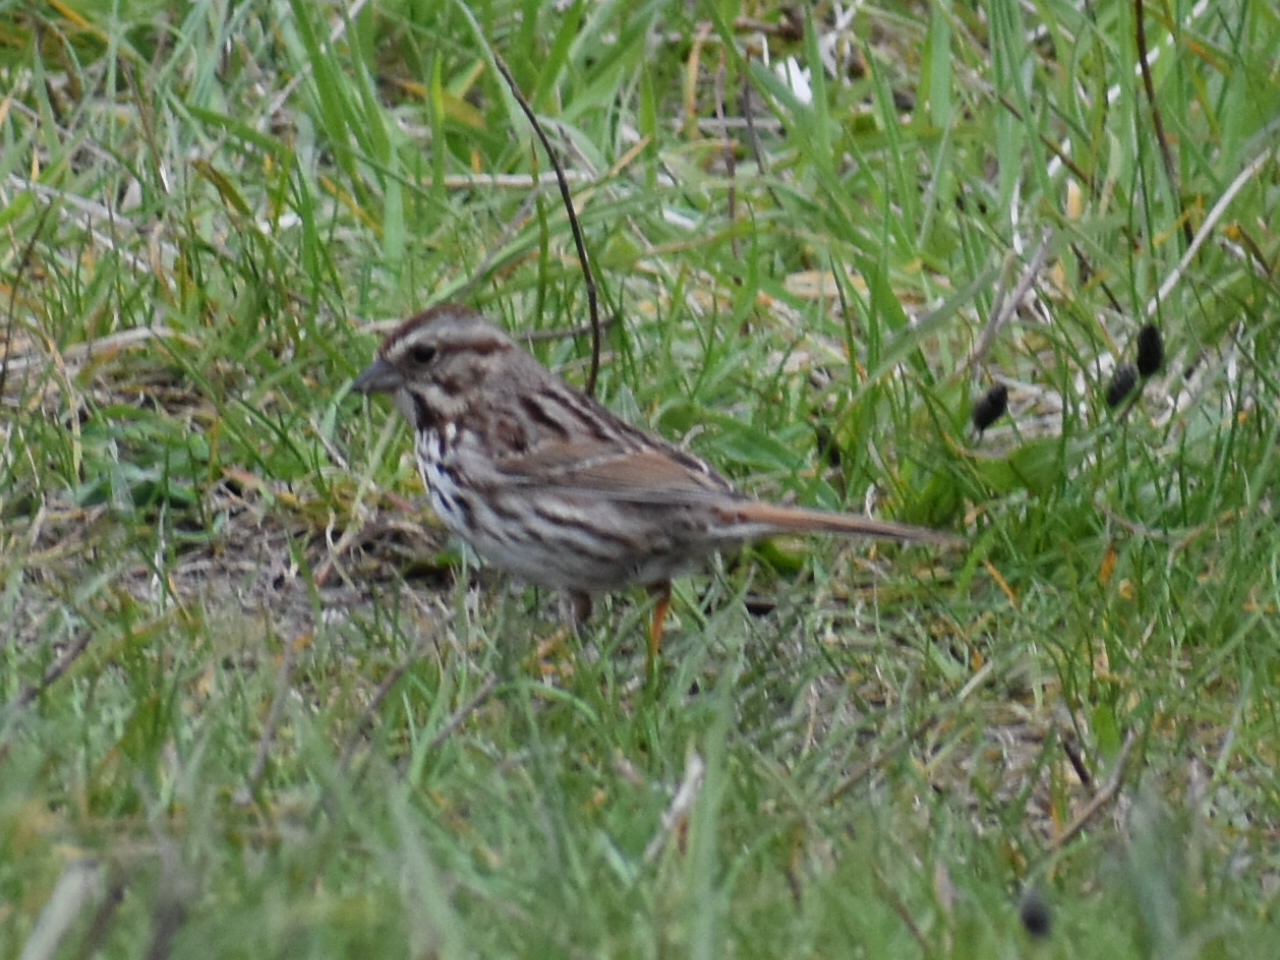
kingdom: Animalia
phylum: Chordata
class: Aves
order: Passeriformes
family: Passerellidae
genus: Melospiza
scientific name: Melospiza melodia
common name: Song sparrow
